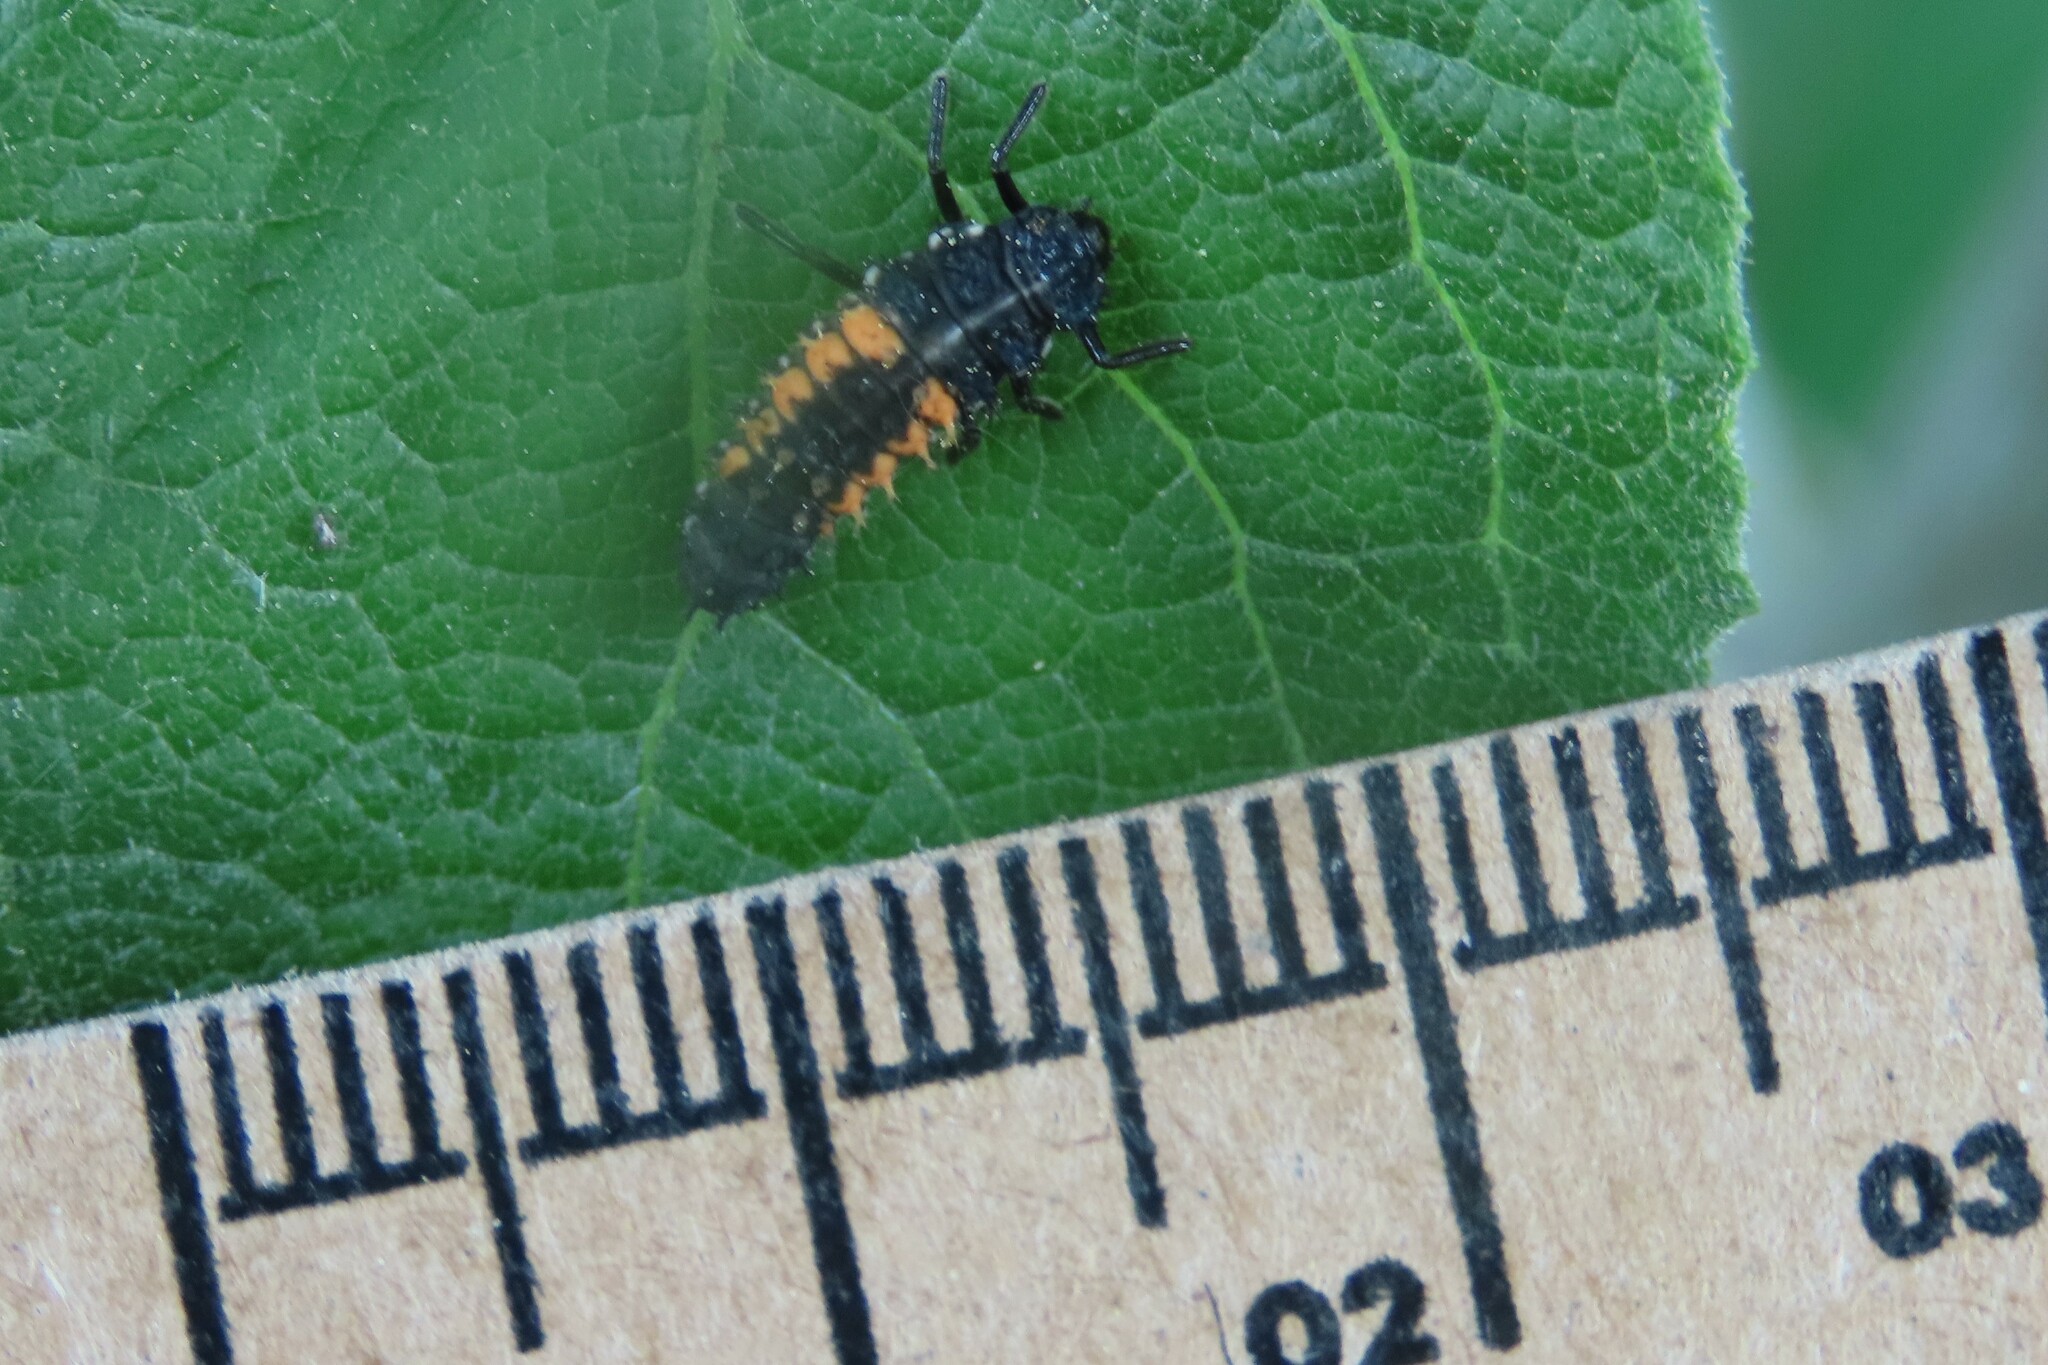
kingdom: Animalia
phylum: Arthropoda
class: Insecta
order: Coleoptera
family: Coccinellidae
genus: Harmonia
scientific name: Harmonia axyridis
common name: Harlequin ladybird
